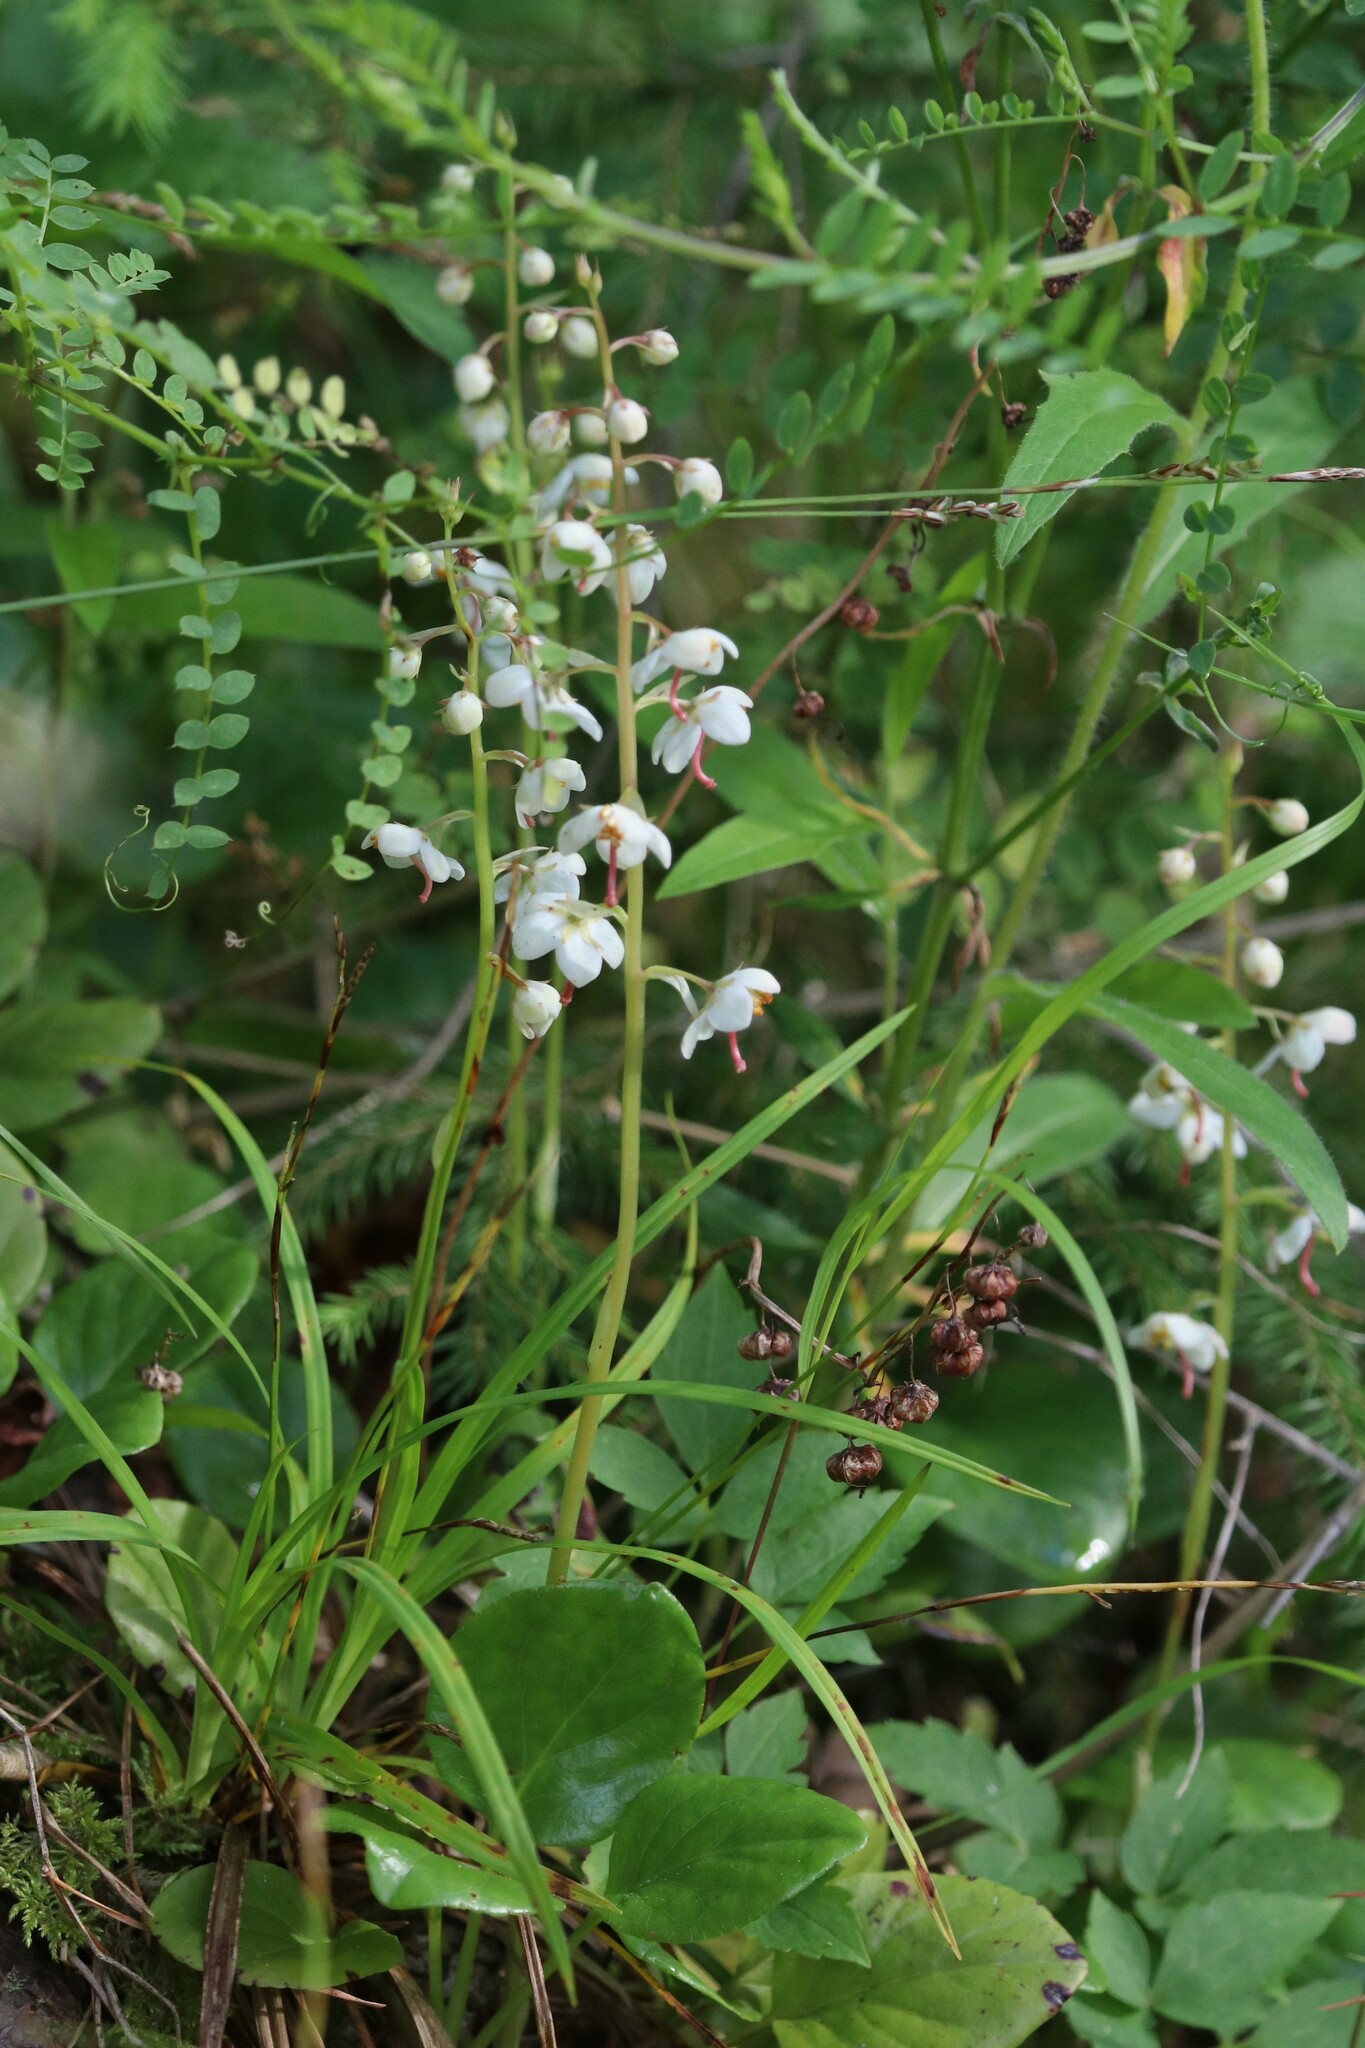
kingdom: Plantae
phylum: Tracheophyta
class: Magnoliopsida
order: Ericales
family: Ericaceae
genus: Pyrola
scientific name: Pyrola rotundifolia
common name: Round-leaved wintergreen
